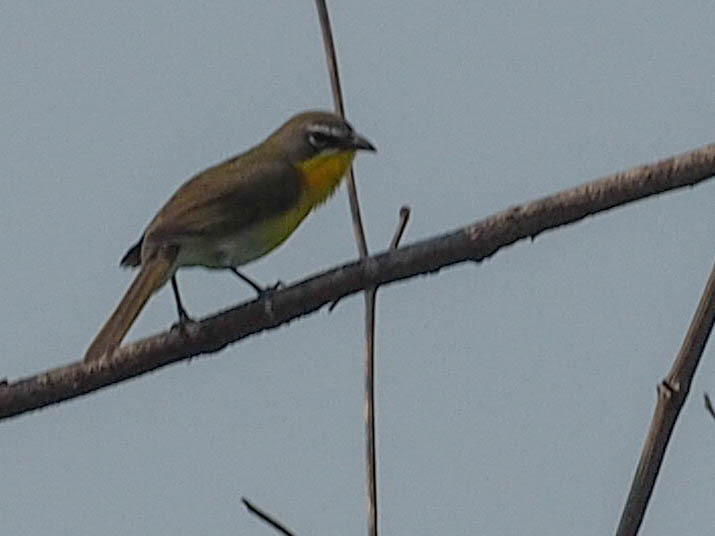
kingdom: Animalia
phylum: Chordata
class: Aves
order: Passeriformes
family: Parulidae
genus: Icteria
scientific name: Icteria virens
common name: Yellow-breasted chat
